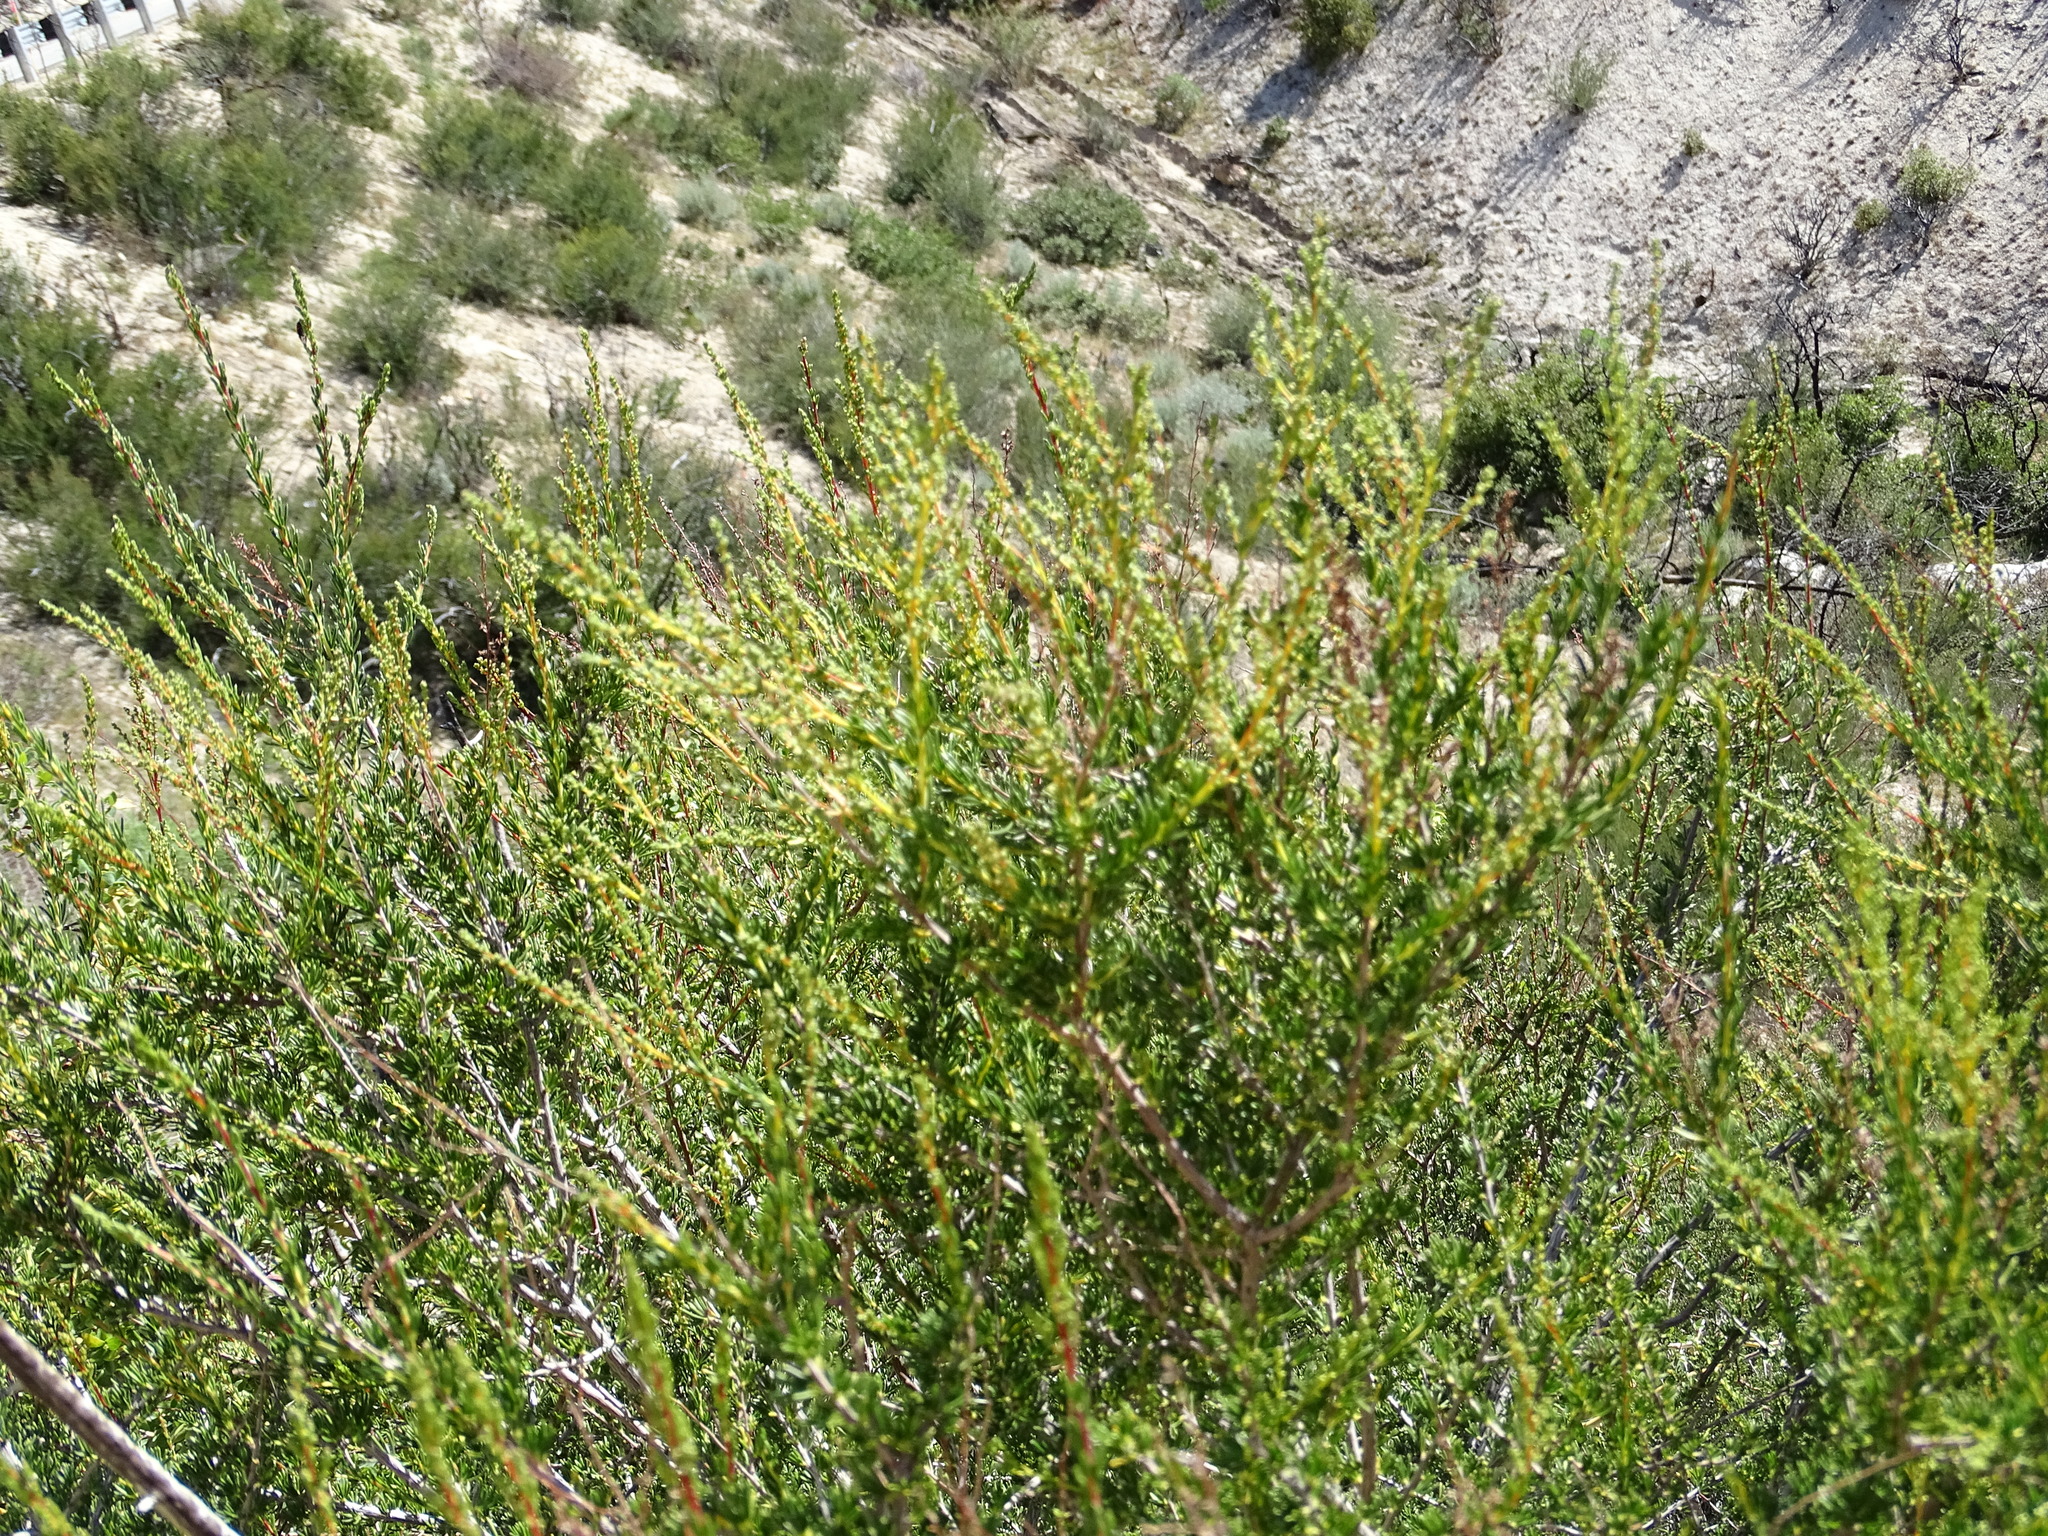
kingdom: Plantae
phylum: Tracheophyta
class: Magnoliopsida
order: Rosales
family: Rosaceae
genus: Adenostoma
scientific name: Adenostoma fasciculatum
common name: Chamise
